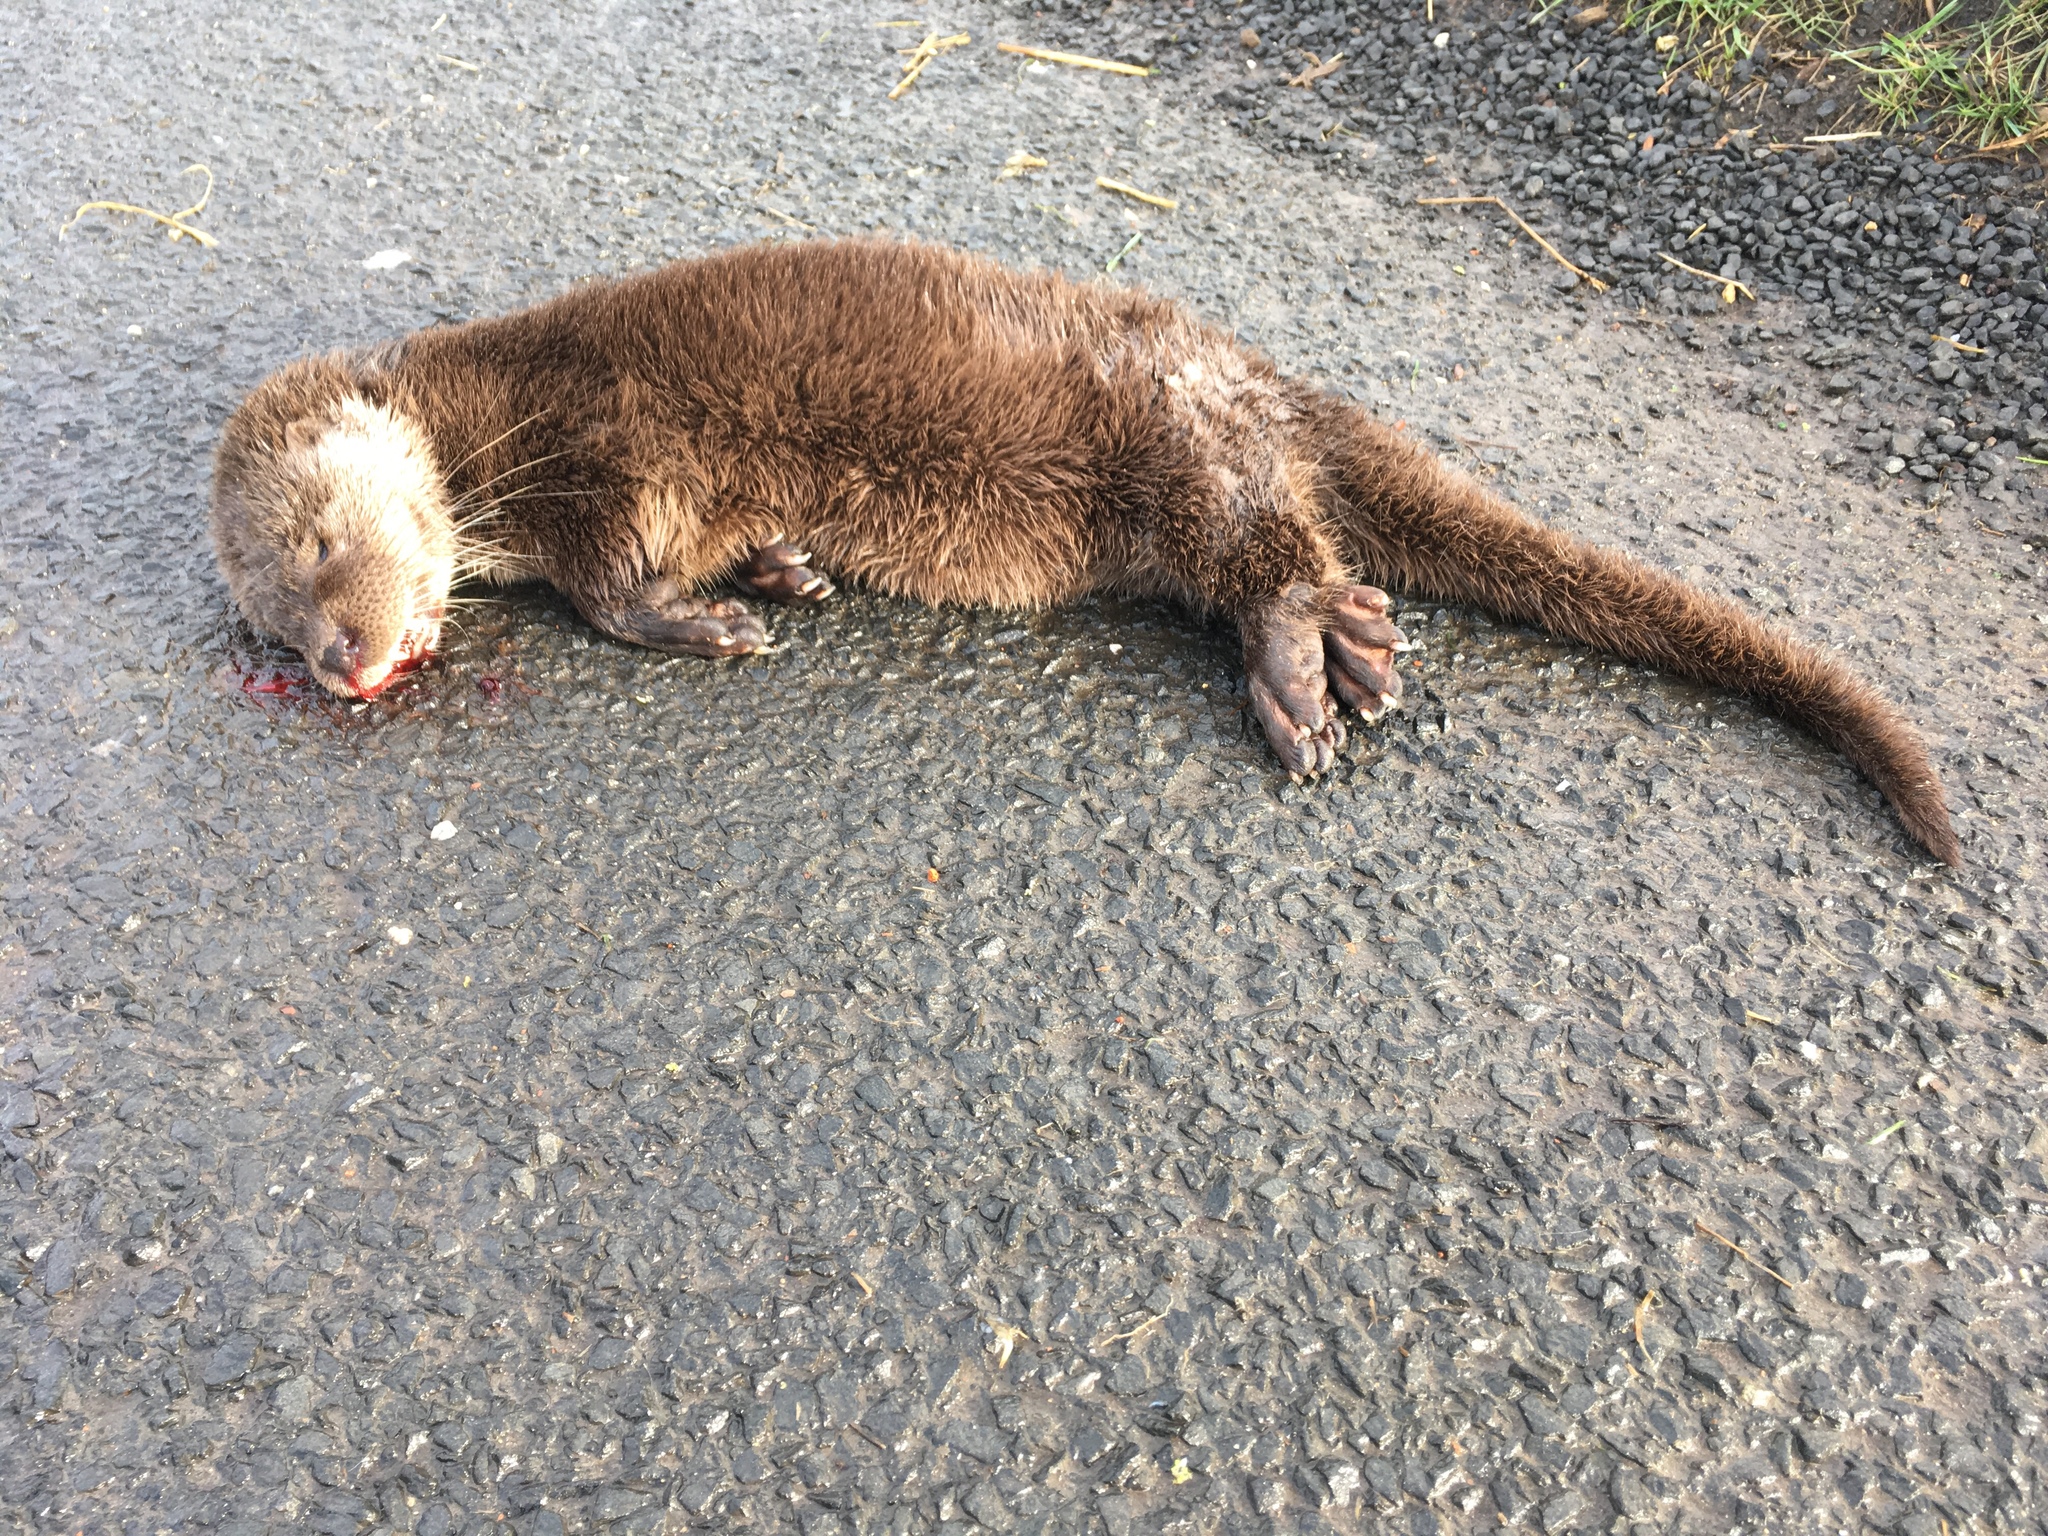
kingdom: Animalia
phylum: Chordata
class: Mammalia
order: Carnivora
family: Mustelidae
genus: Lutra
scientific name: Lutra lutra
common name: European otter
